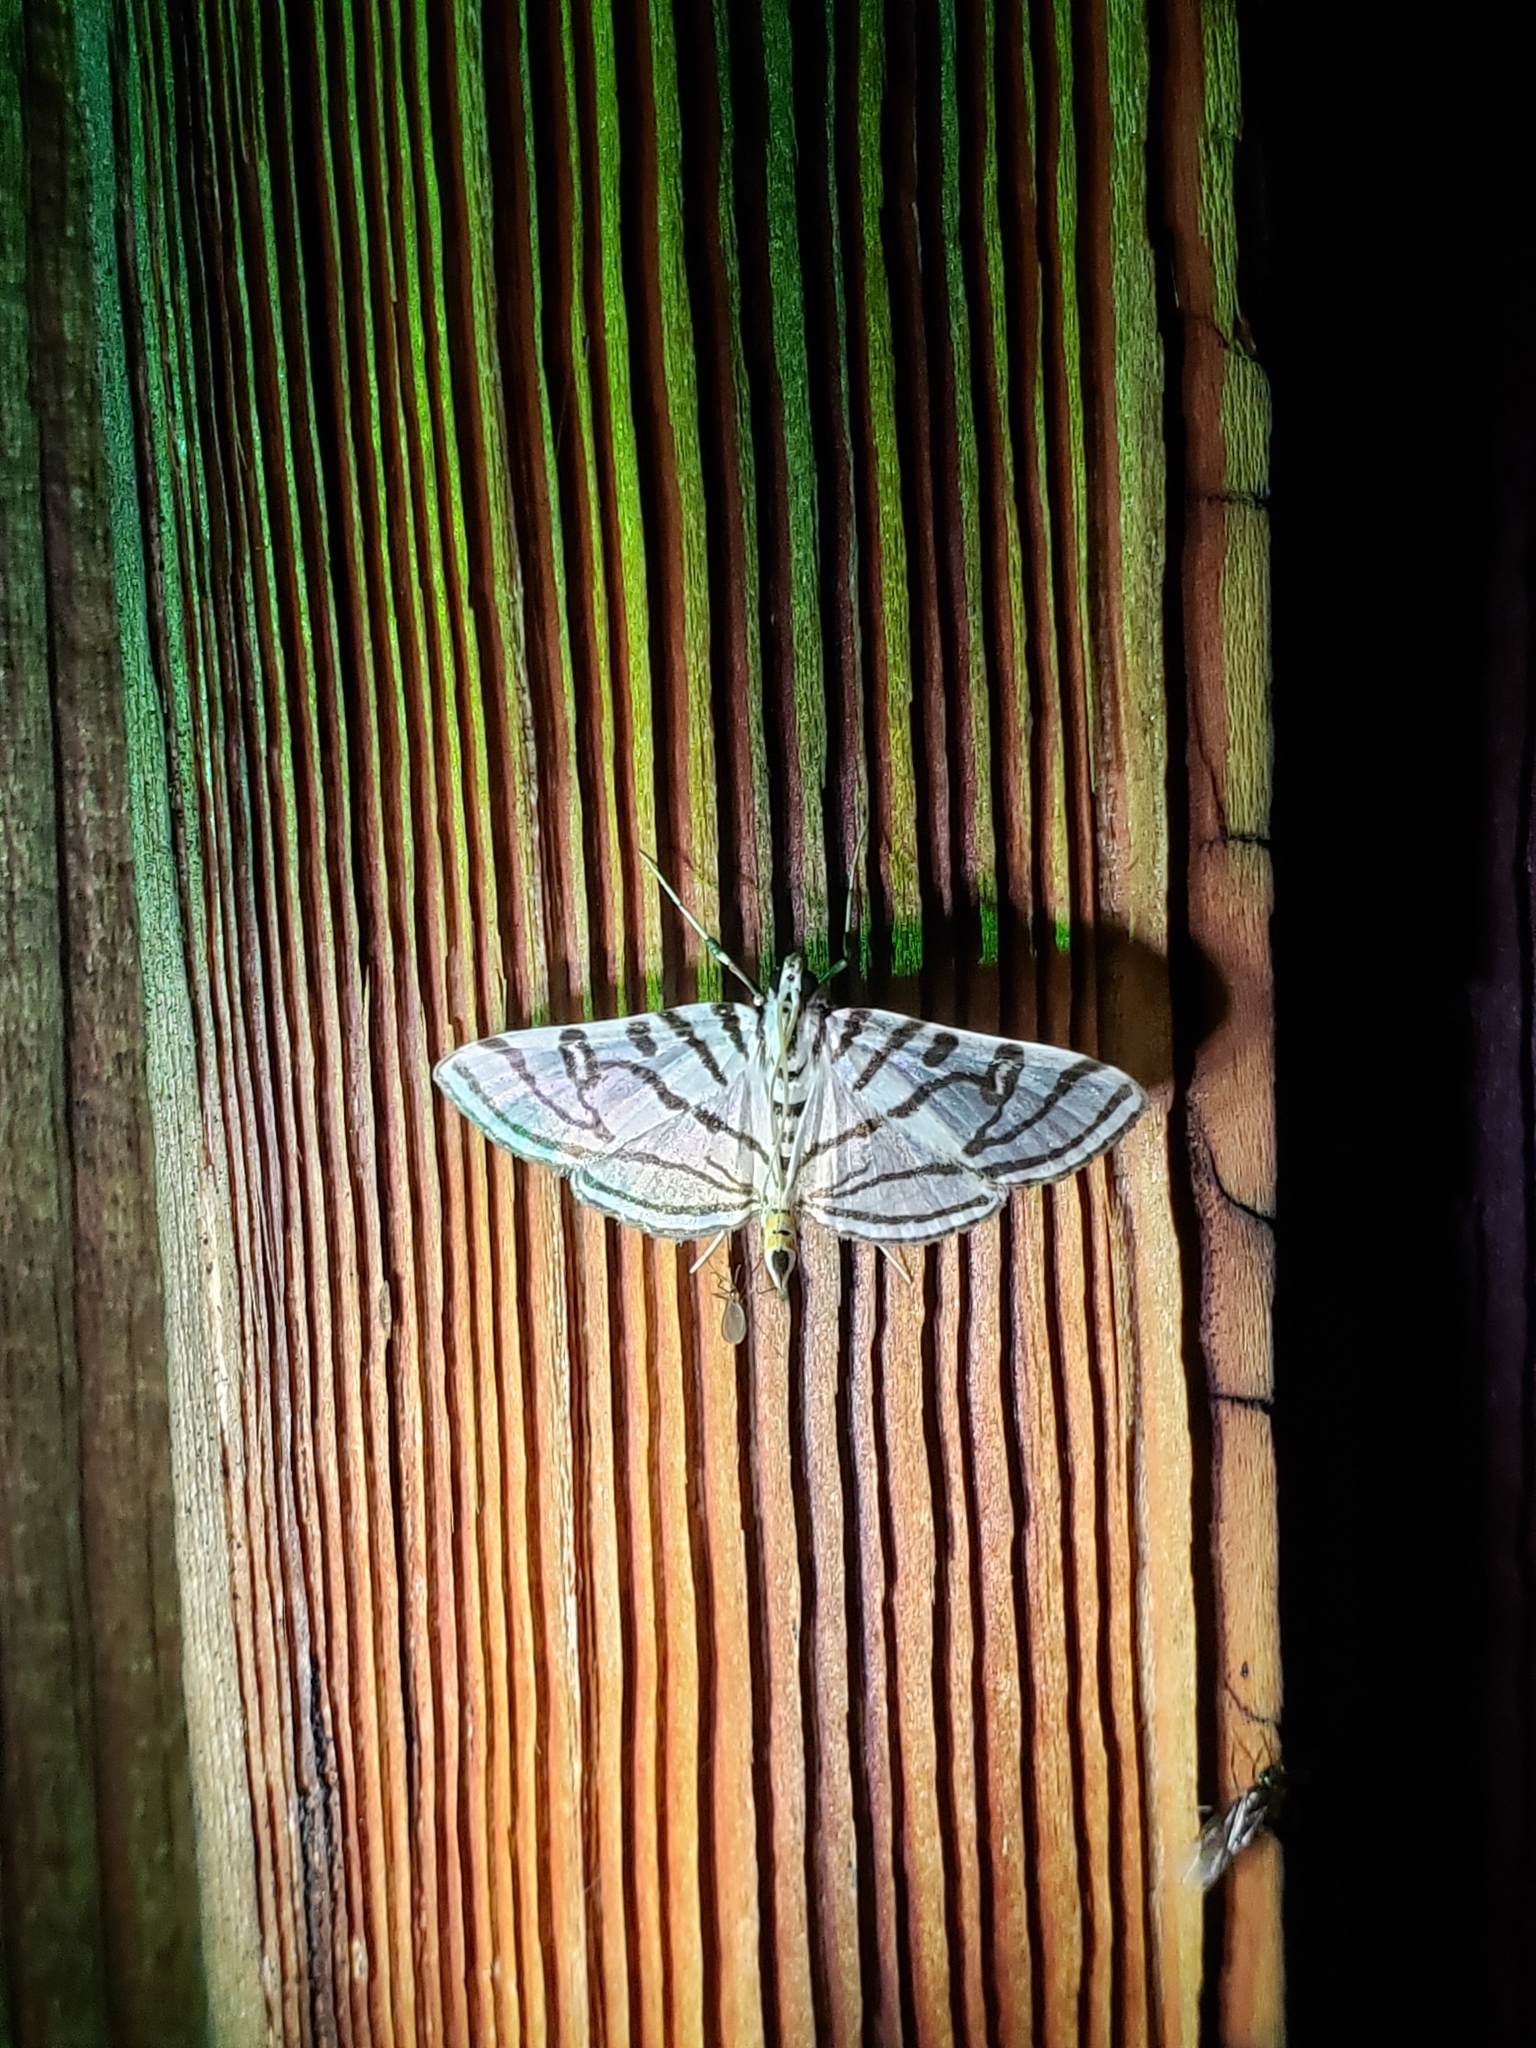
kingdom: Animalia
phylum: Arthropoda
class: Insecta
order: Lepidoptera
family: Crambidae
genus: Conchylodes
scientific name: Conchylodes ovulalis
